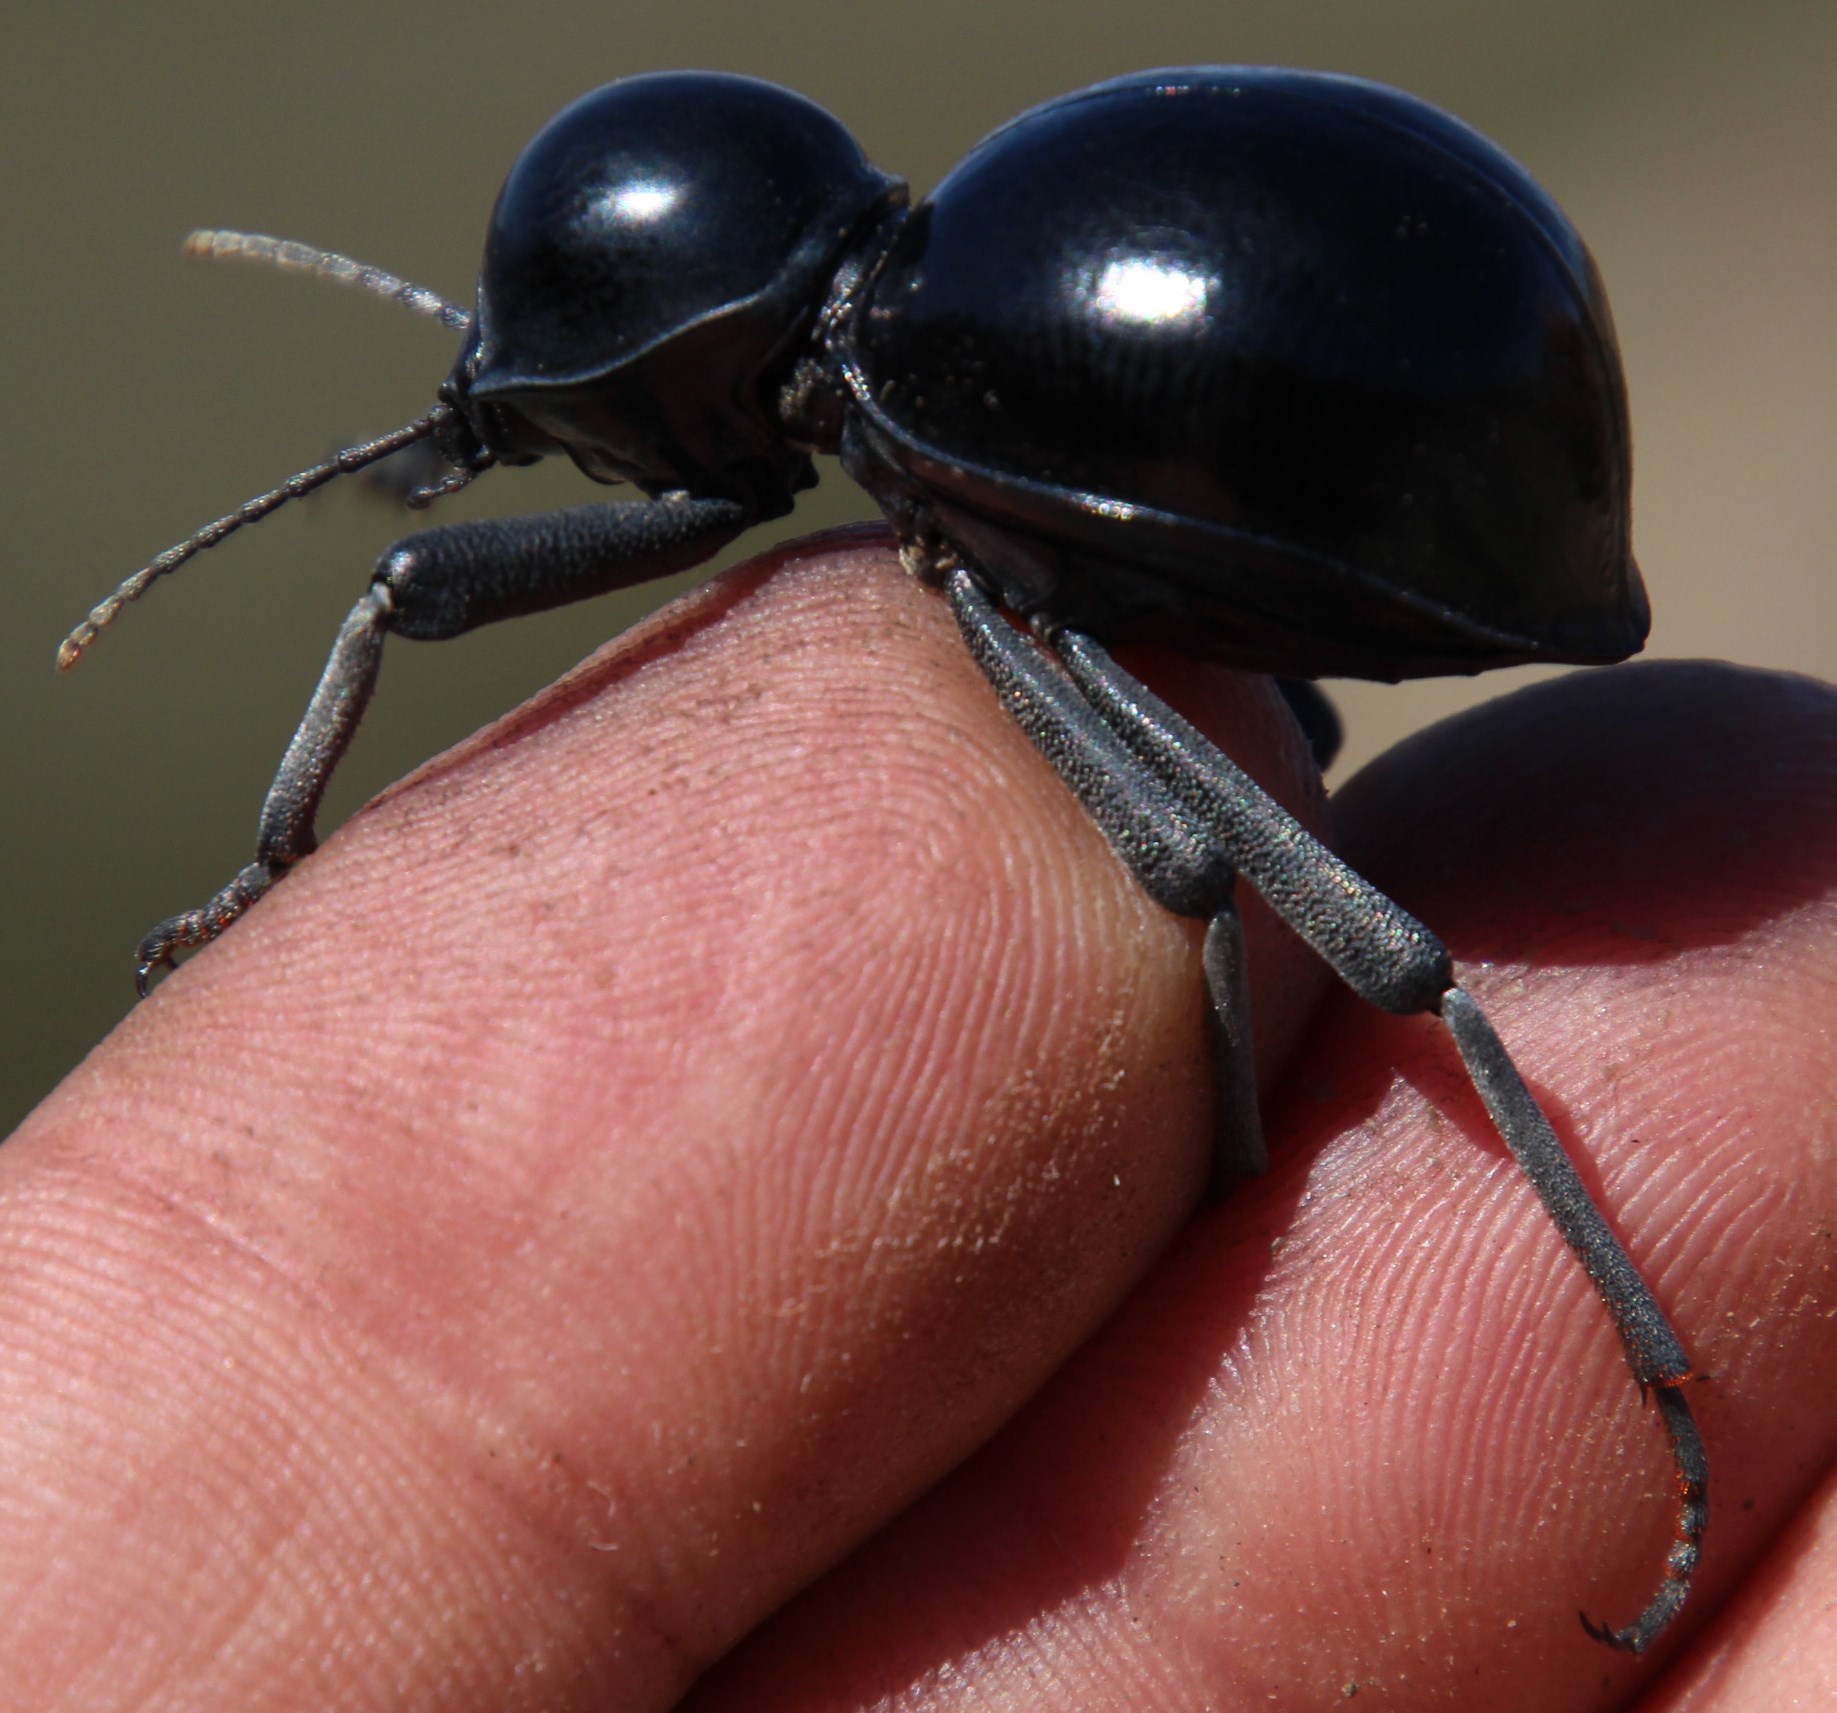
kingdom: Animalia
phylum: Arthropoda
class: Insecta
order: Coleoptera
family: Tenebrionidae
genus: Moluris
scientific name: Moluris globulicollis
